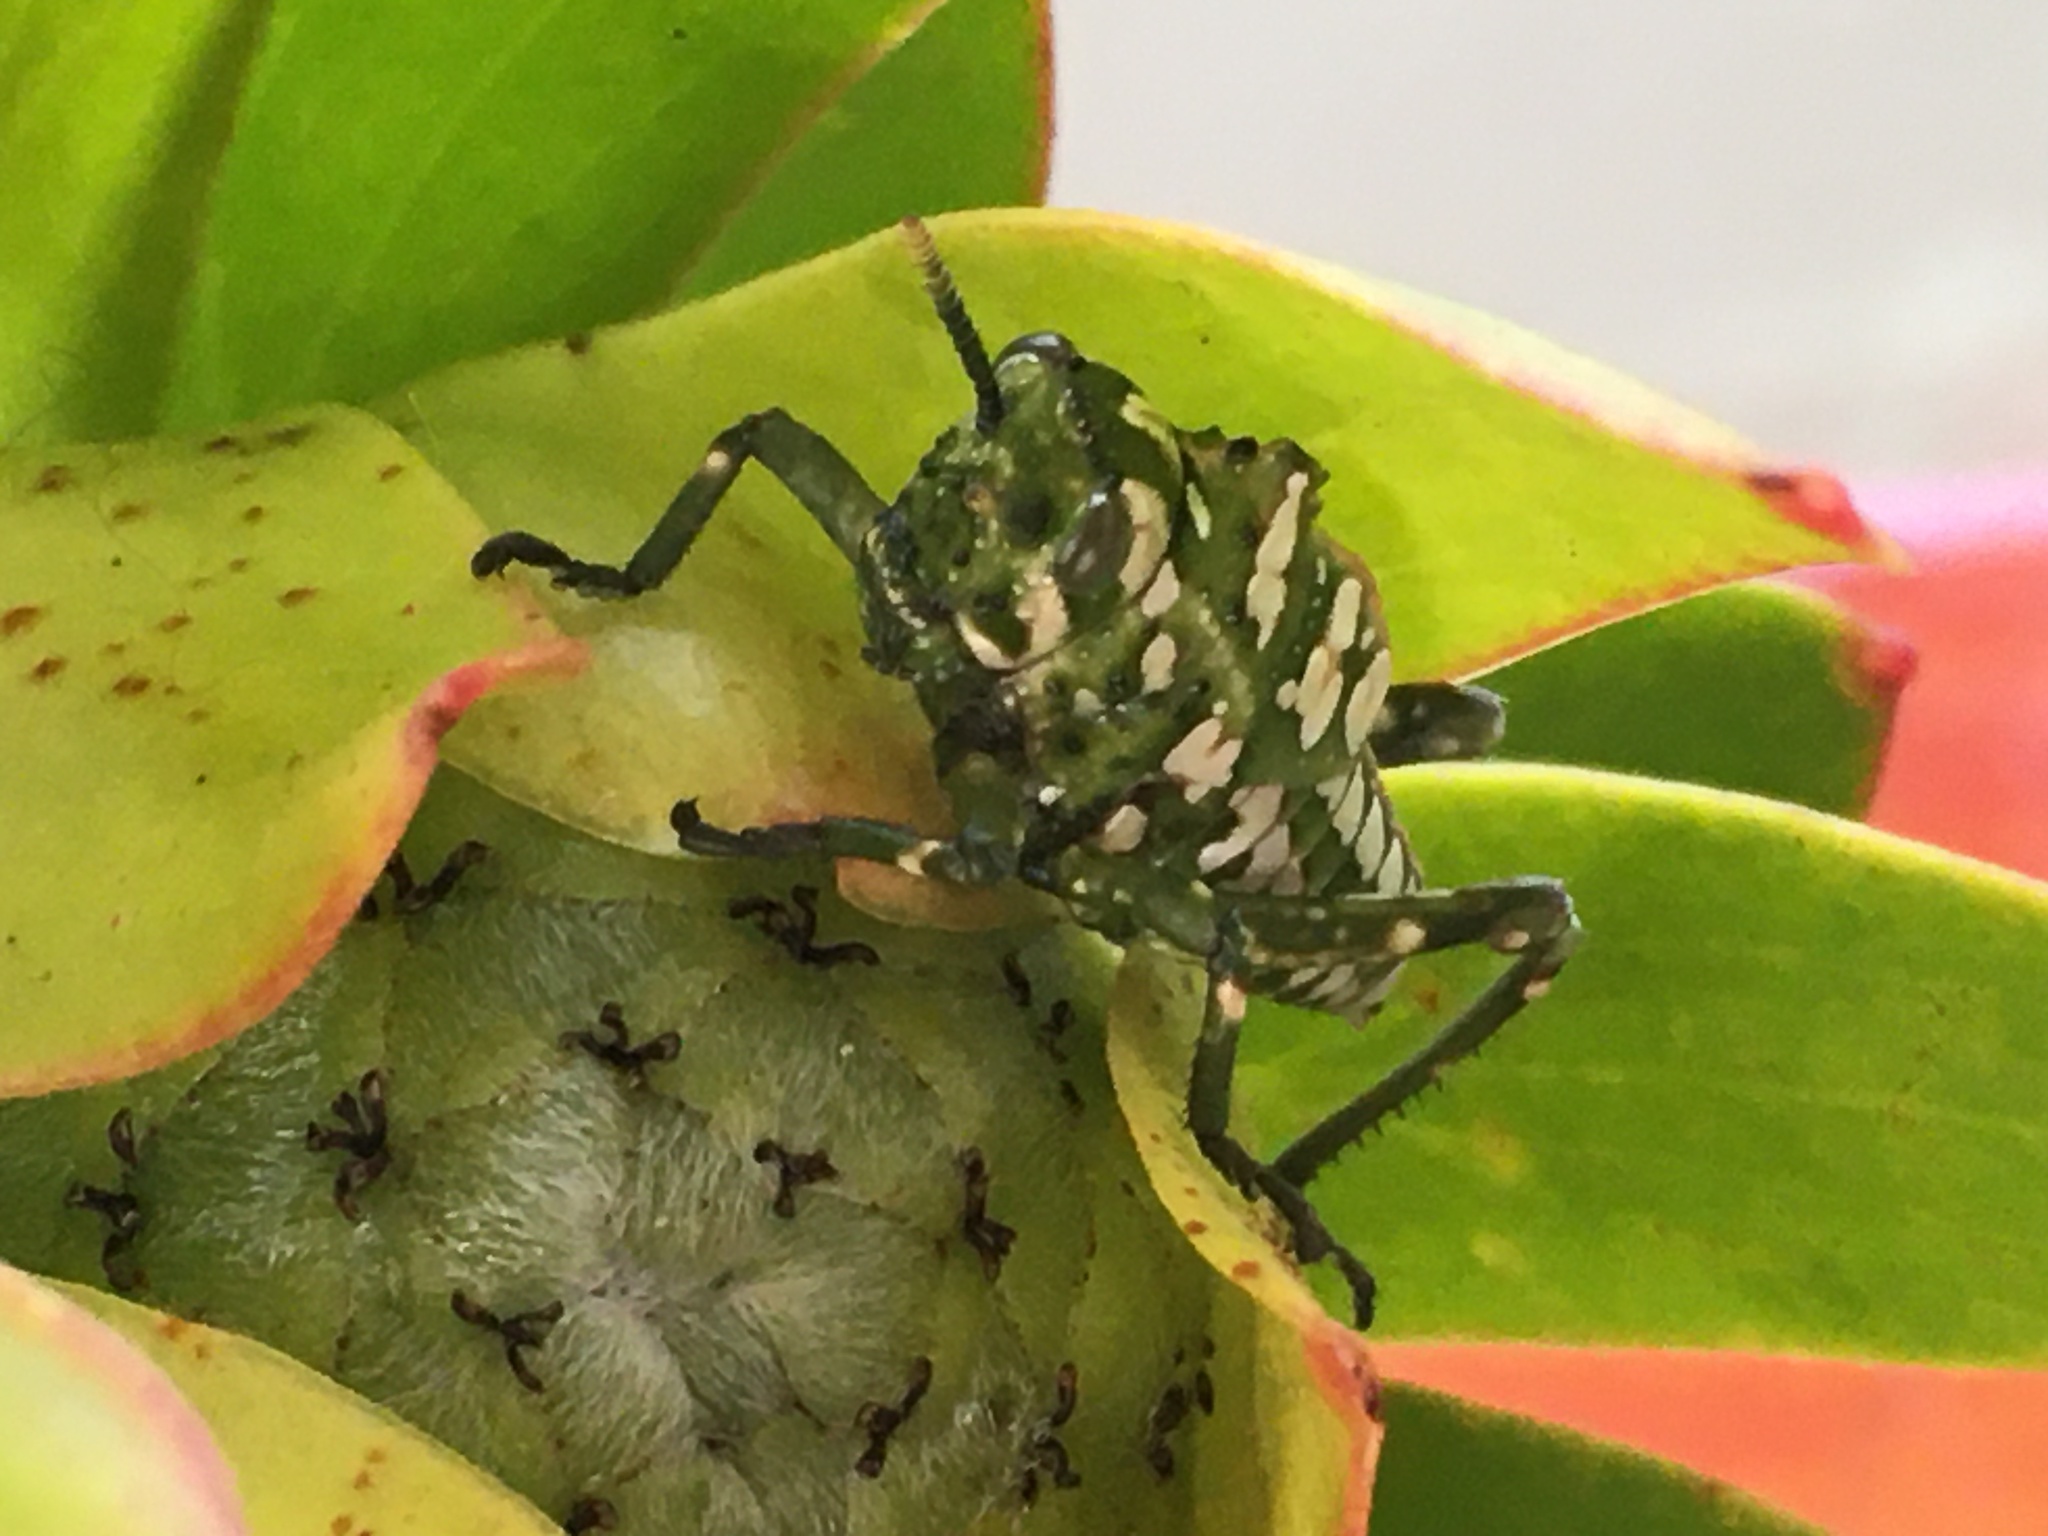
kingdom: Animalia
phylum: Arthropoda
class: Insecta
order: Orthoptera
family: Pneumoridae
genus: Physemacris
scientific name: Physemacris variolosa
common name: Silver spotted bladder grasshopper
